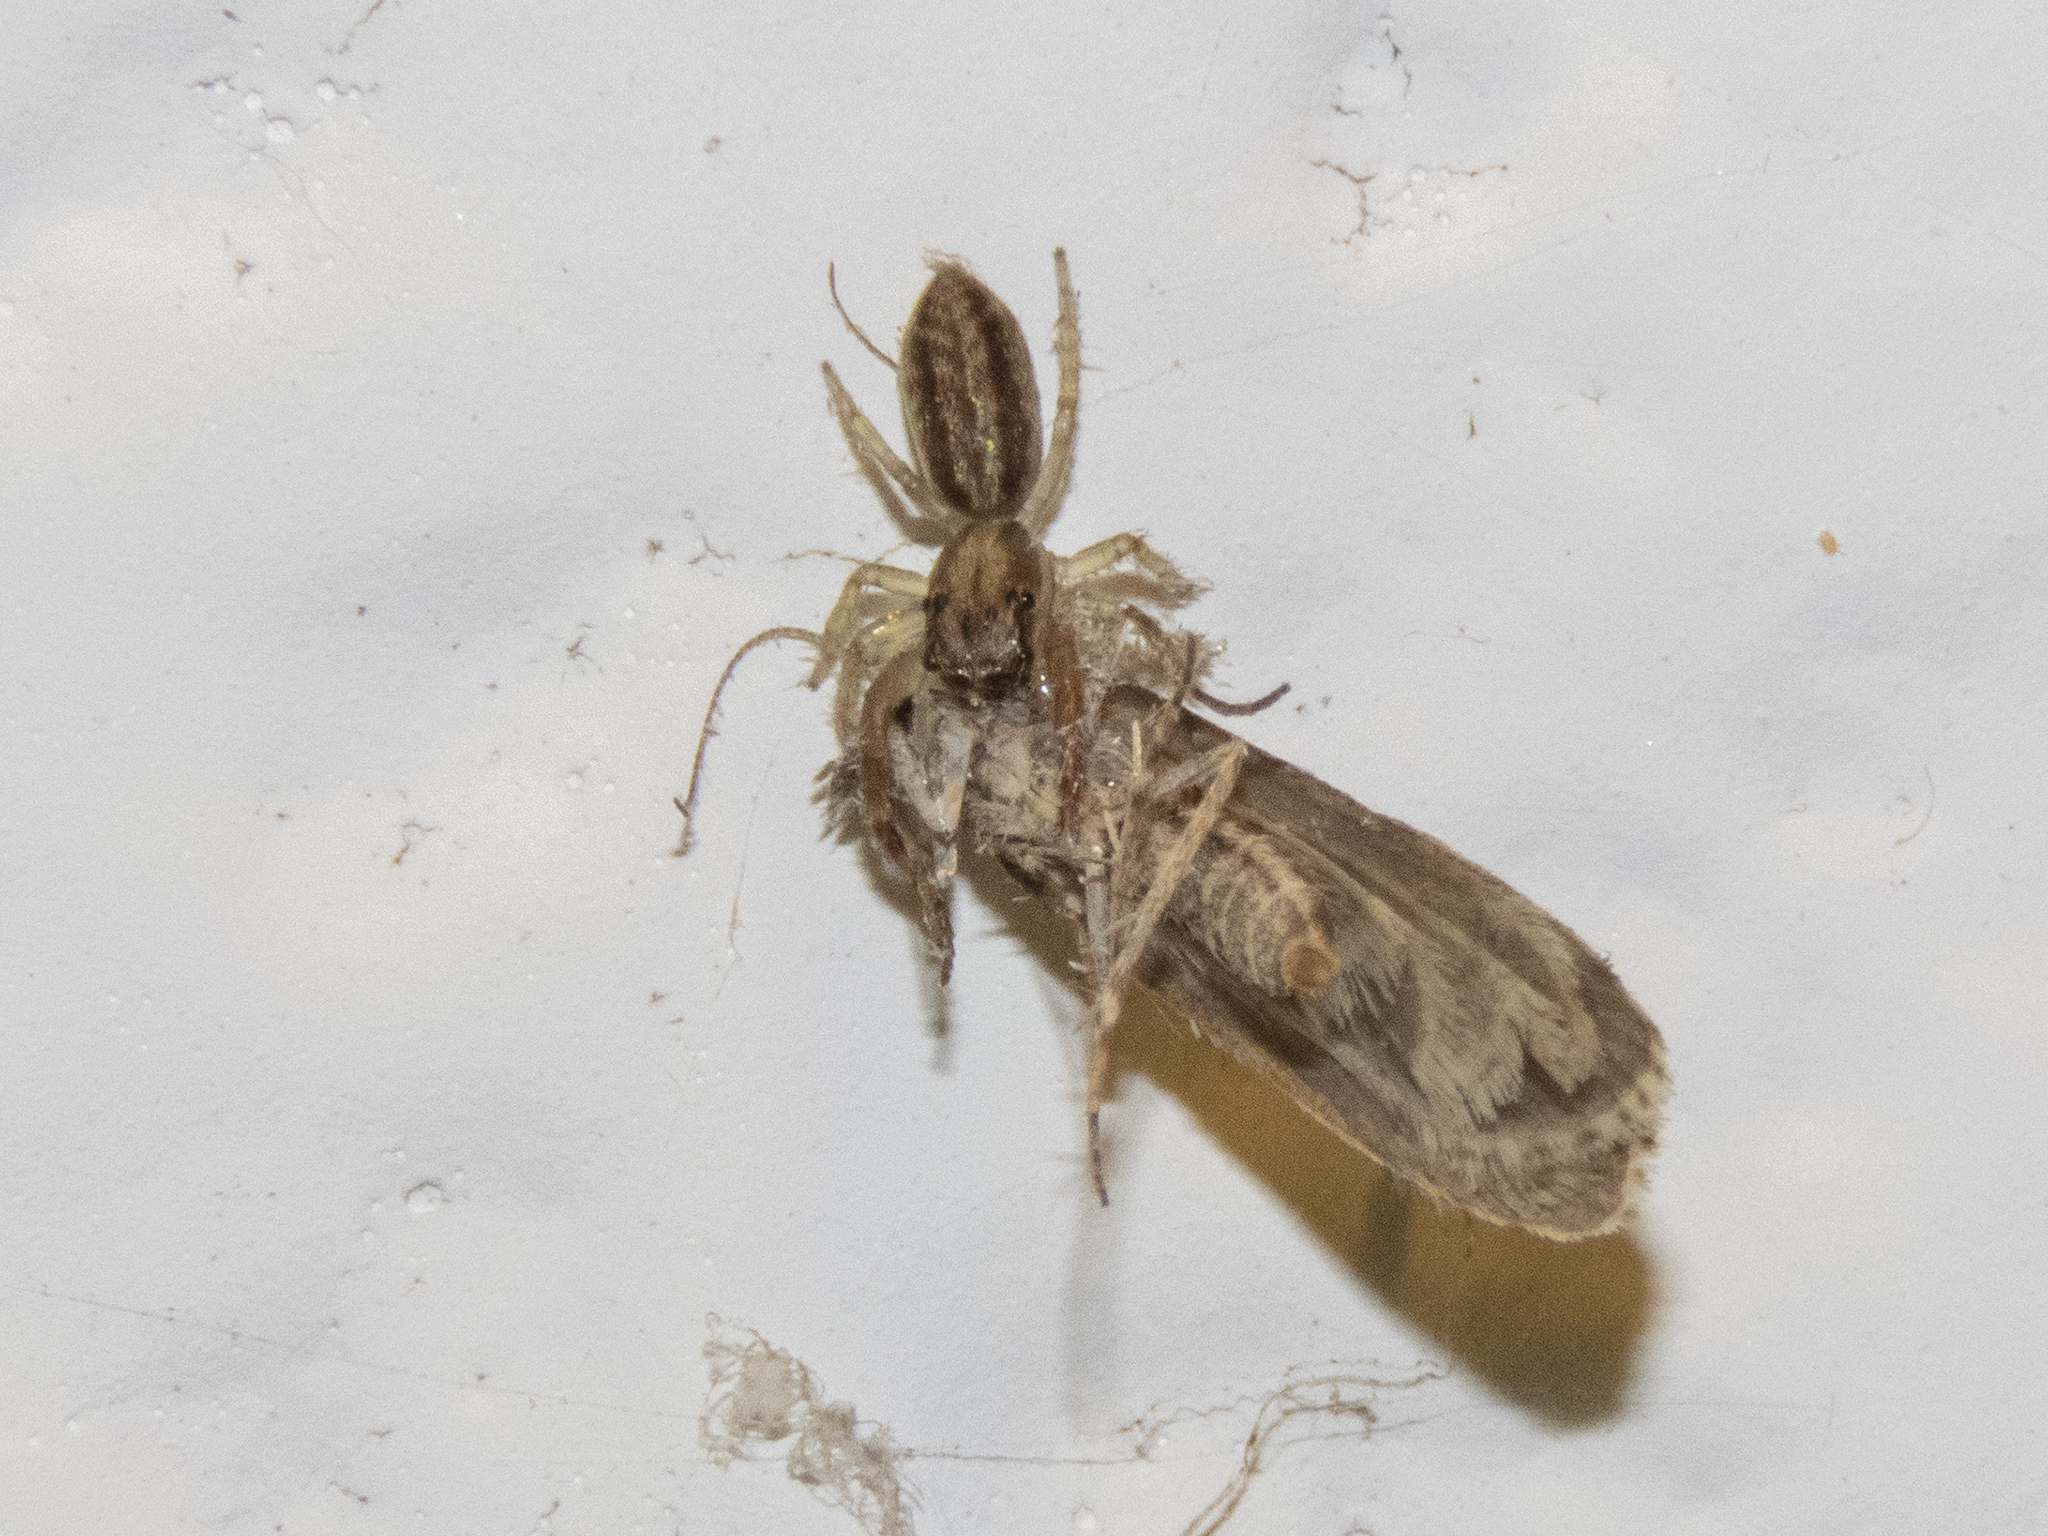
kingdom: Animalia
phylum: Arthropoda
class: Arachnida
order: Araneae
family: Salticidae
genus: Trite
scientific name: Trite mustilina
